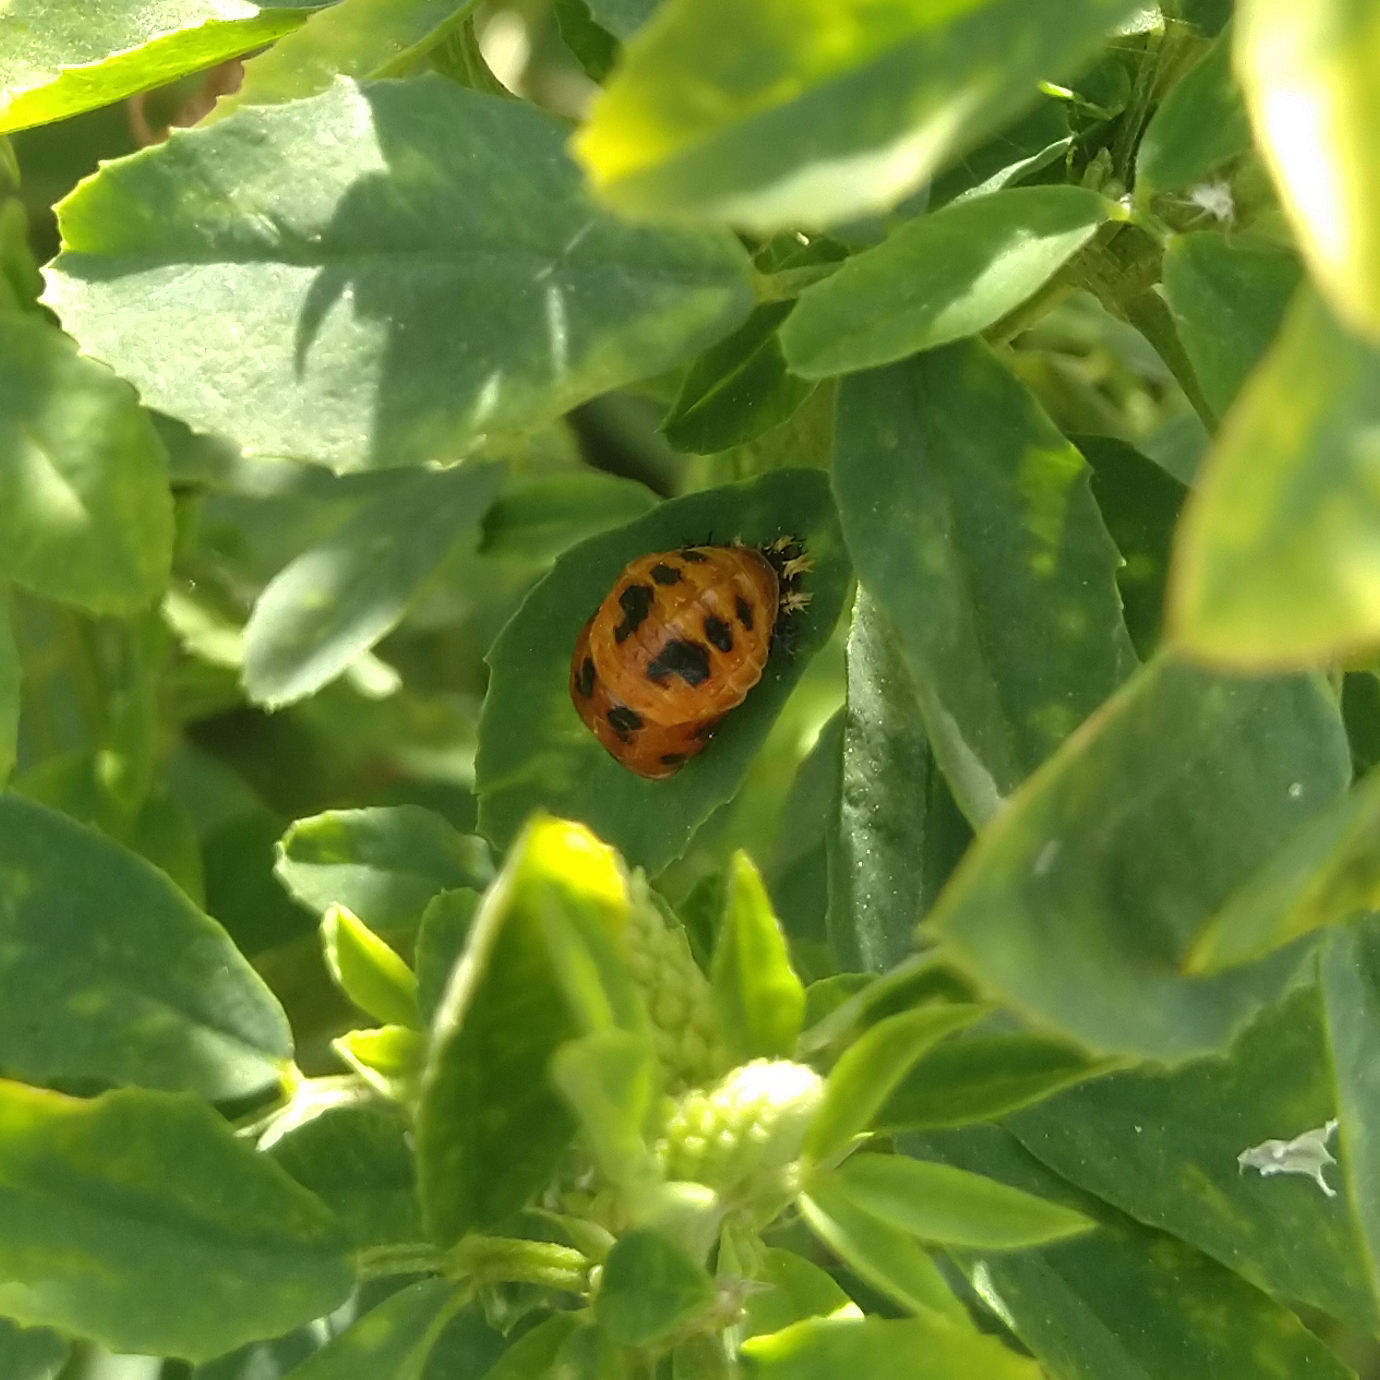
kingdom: Animalia
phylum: Arthropoda
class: Insecta
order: Coleoptera
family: Coccinellidae
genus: Harmonia
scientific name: Harmonia axyridis
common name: Harlequin ladybird
